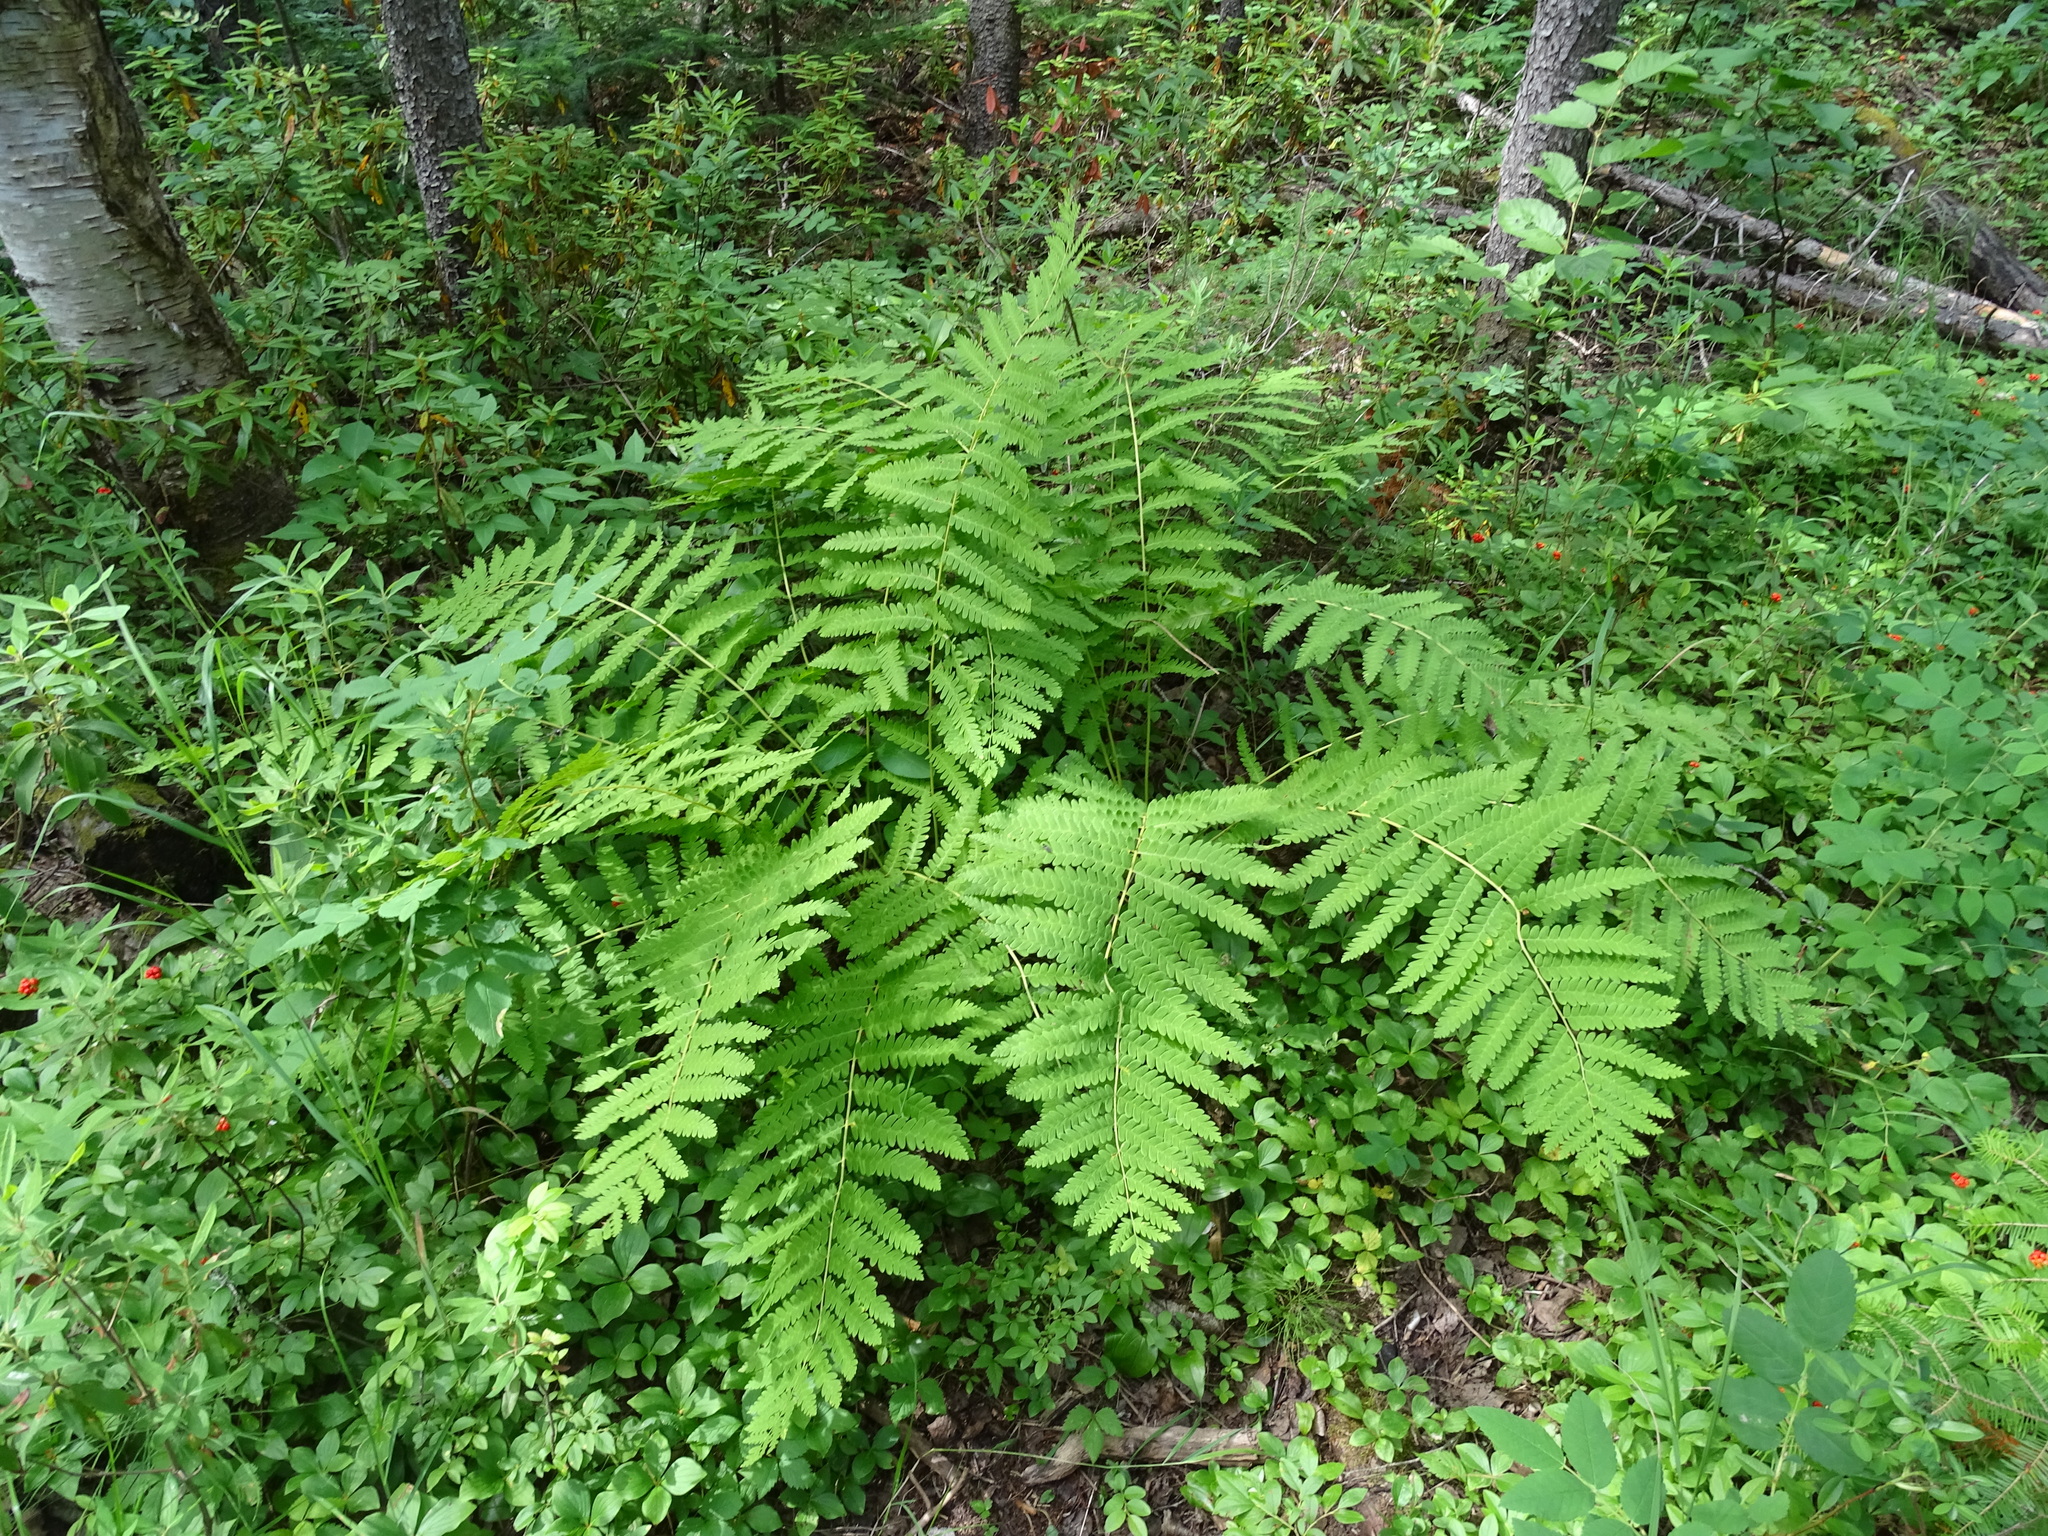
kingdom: Plantae
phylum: Tracheophyta
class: Polypodiopsida
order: Osmundales
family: Osmundaceae
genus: Claytosmunda
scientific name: Claytosmunda claytoniana
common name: Clayton's fern
